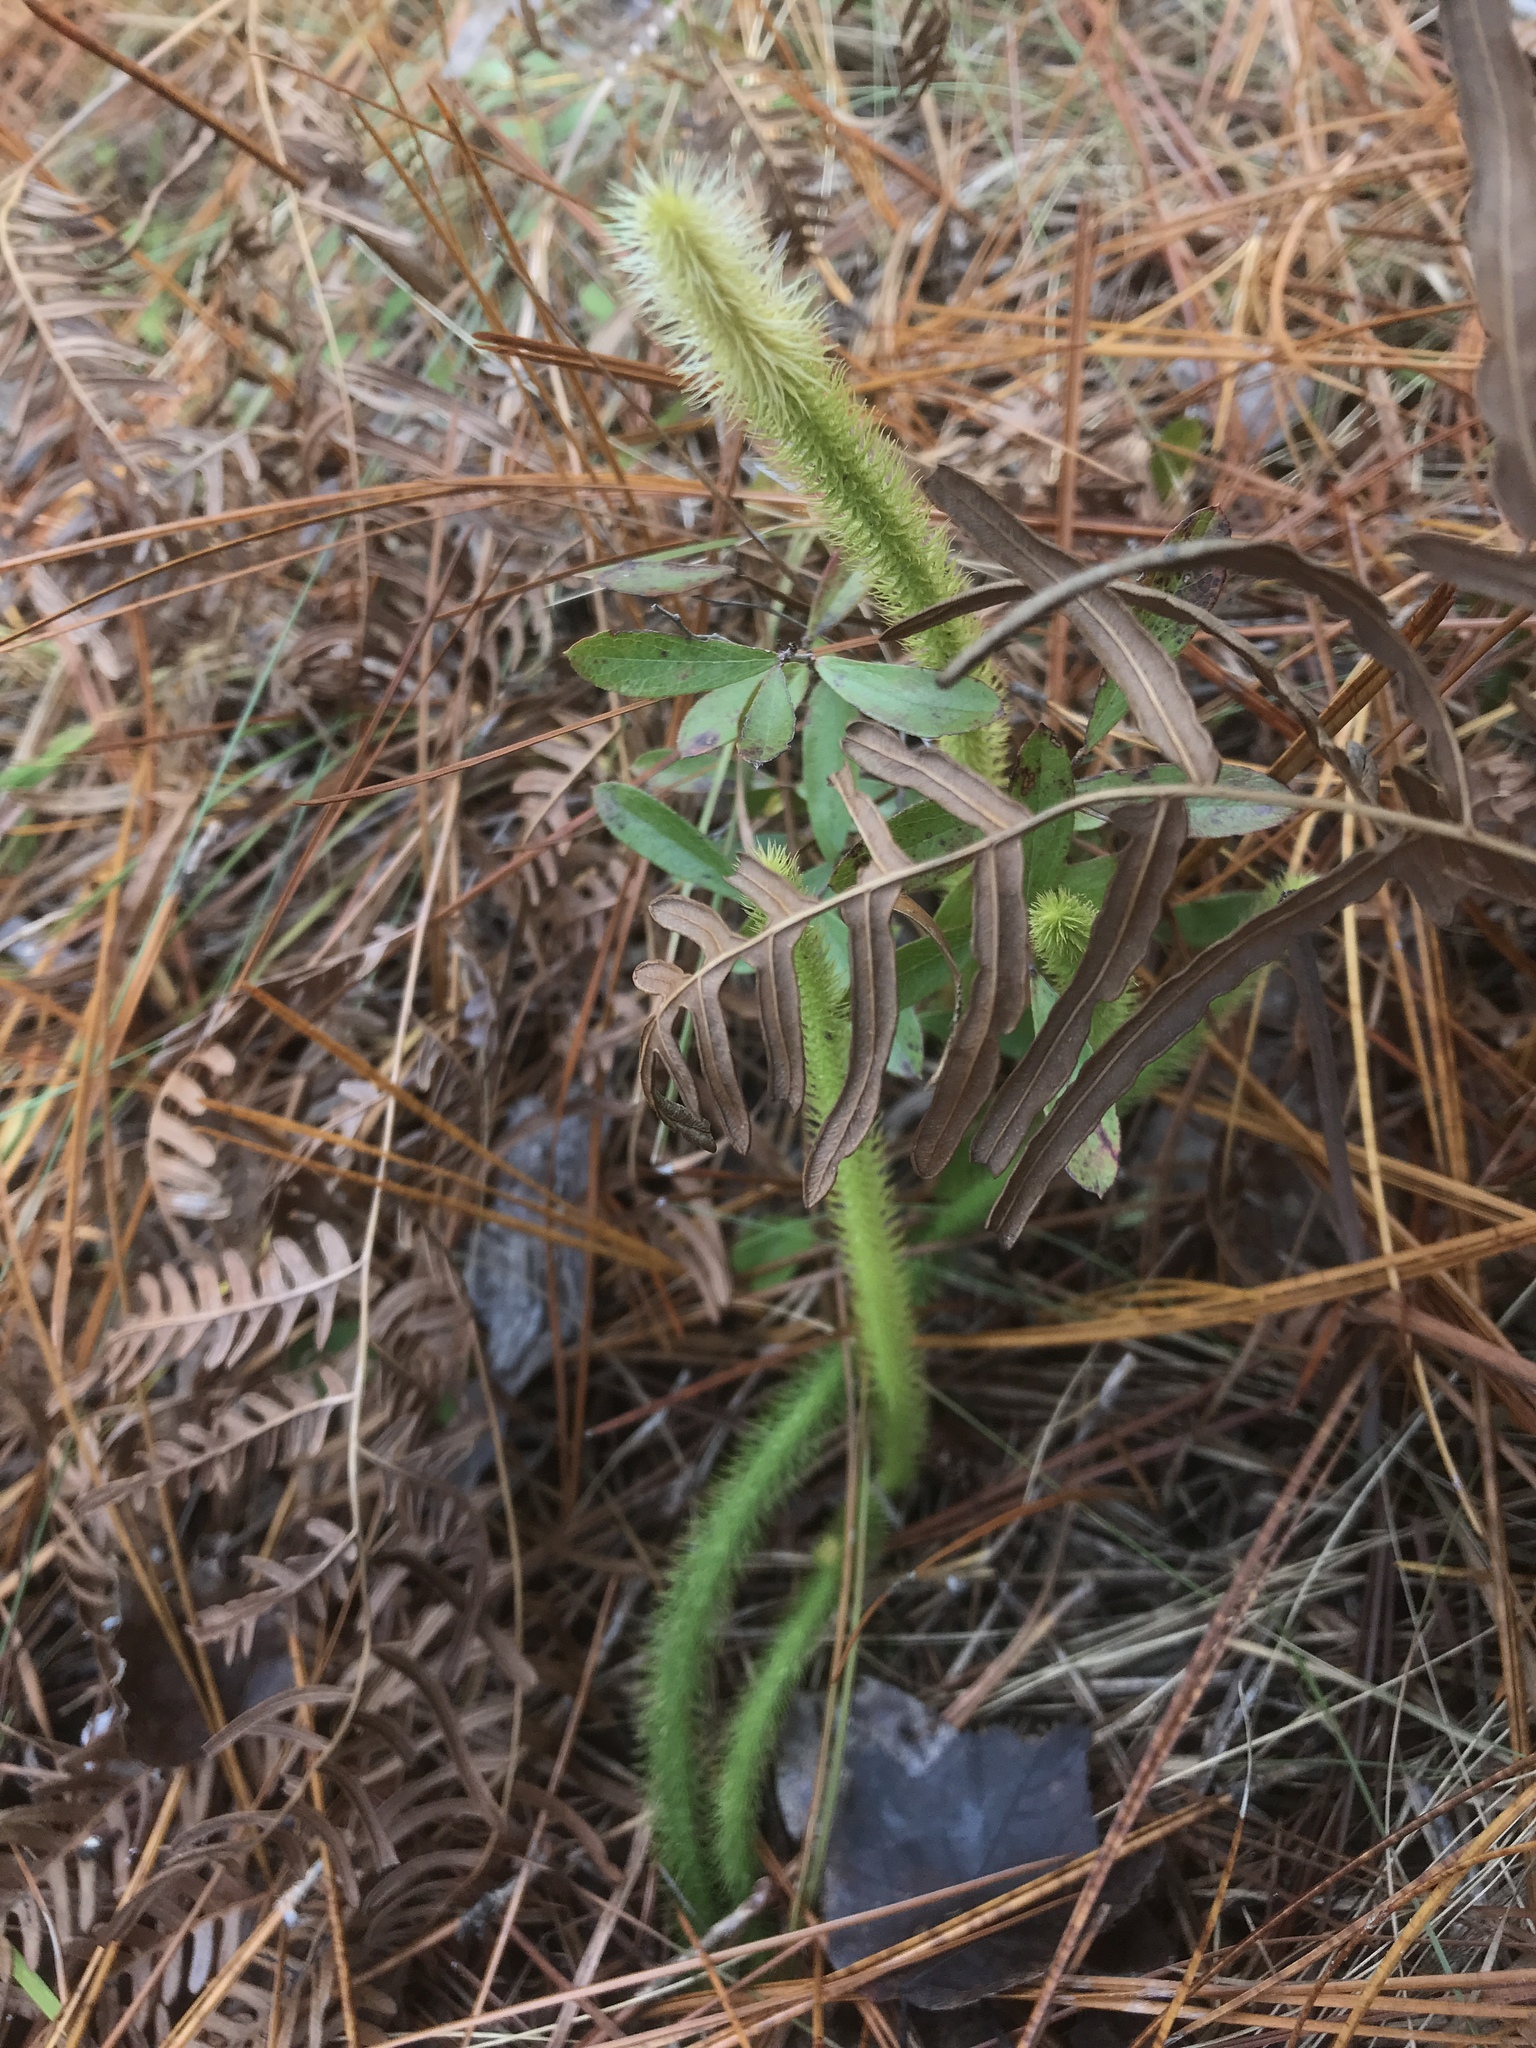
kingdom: Plantae
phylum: Tracheophyta
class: Lycopodiopsida
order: Lycopodiales
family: Lycopodiaceae
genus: Lycopodiella
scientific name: Lycopodiella alopecuroides
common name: Foxtail clubmoss
